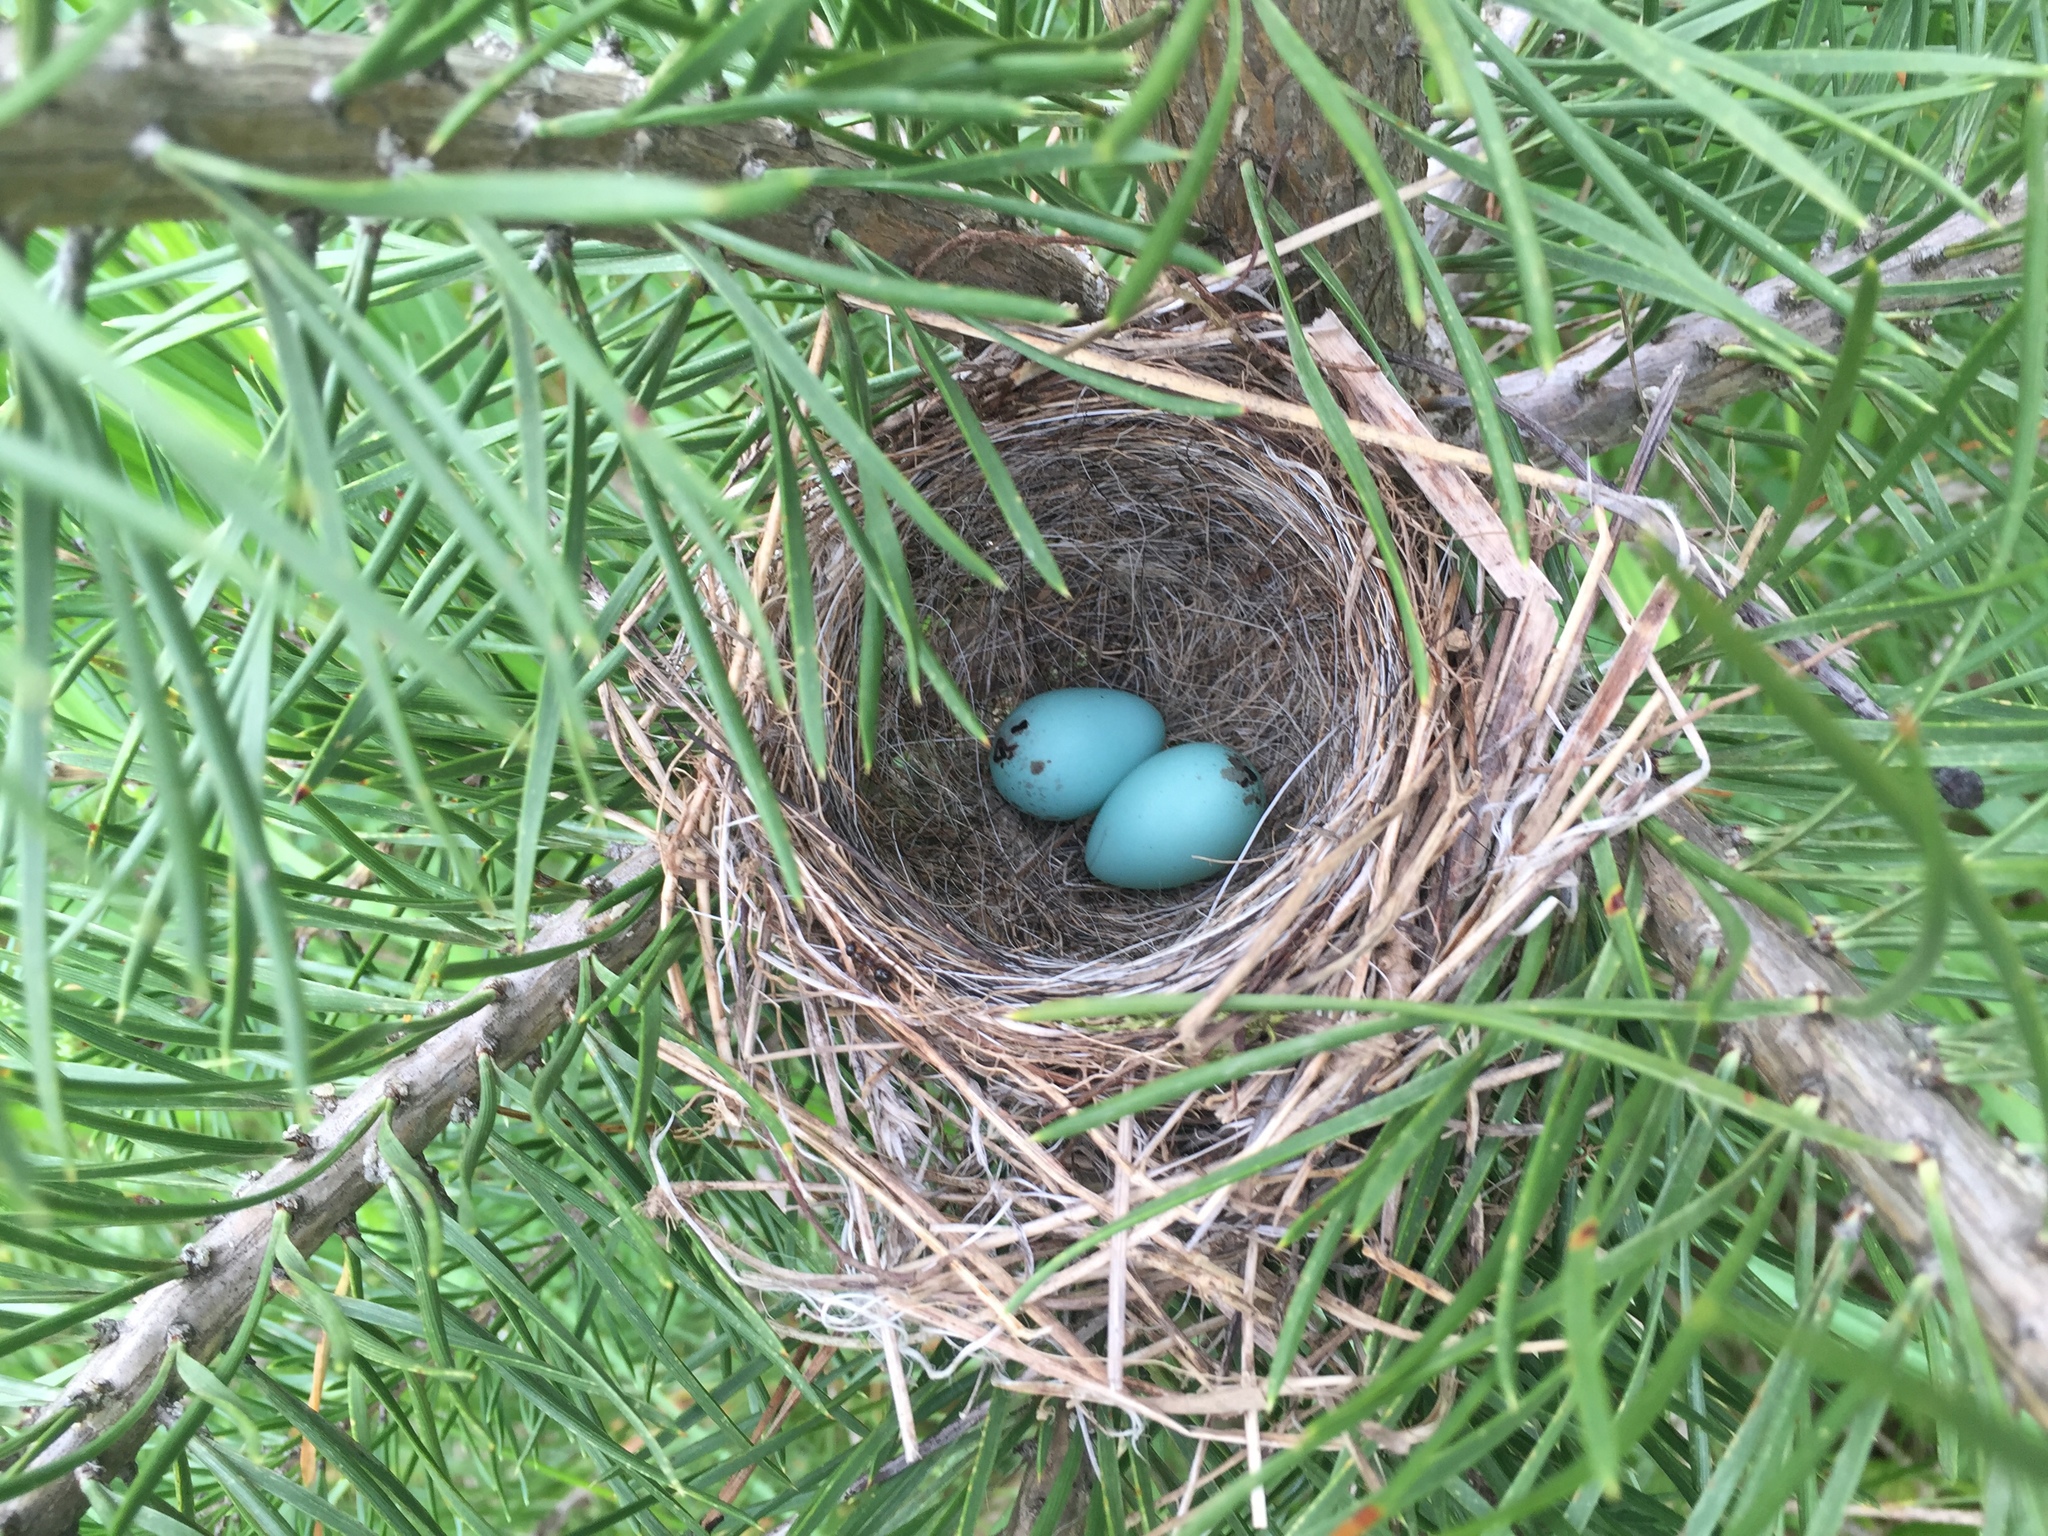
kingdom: Animalia
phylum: Chordata
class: Aves
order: Passeriformes
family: Passerellidae
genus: Spizella
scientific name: Spizella passerina
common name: Chipping sparrow
